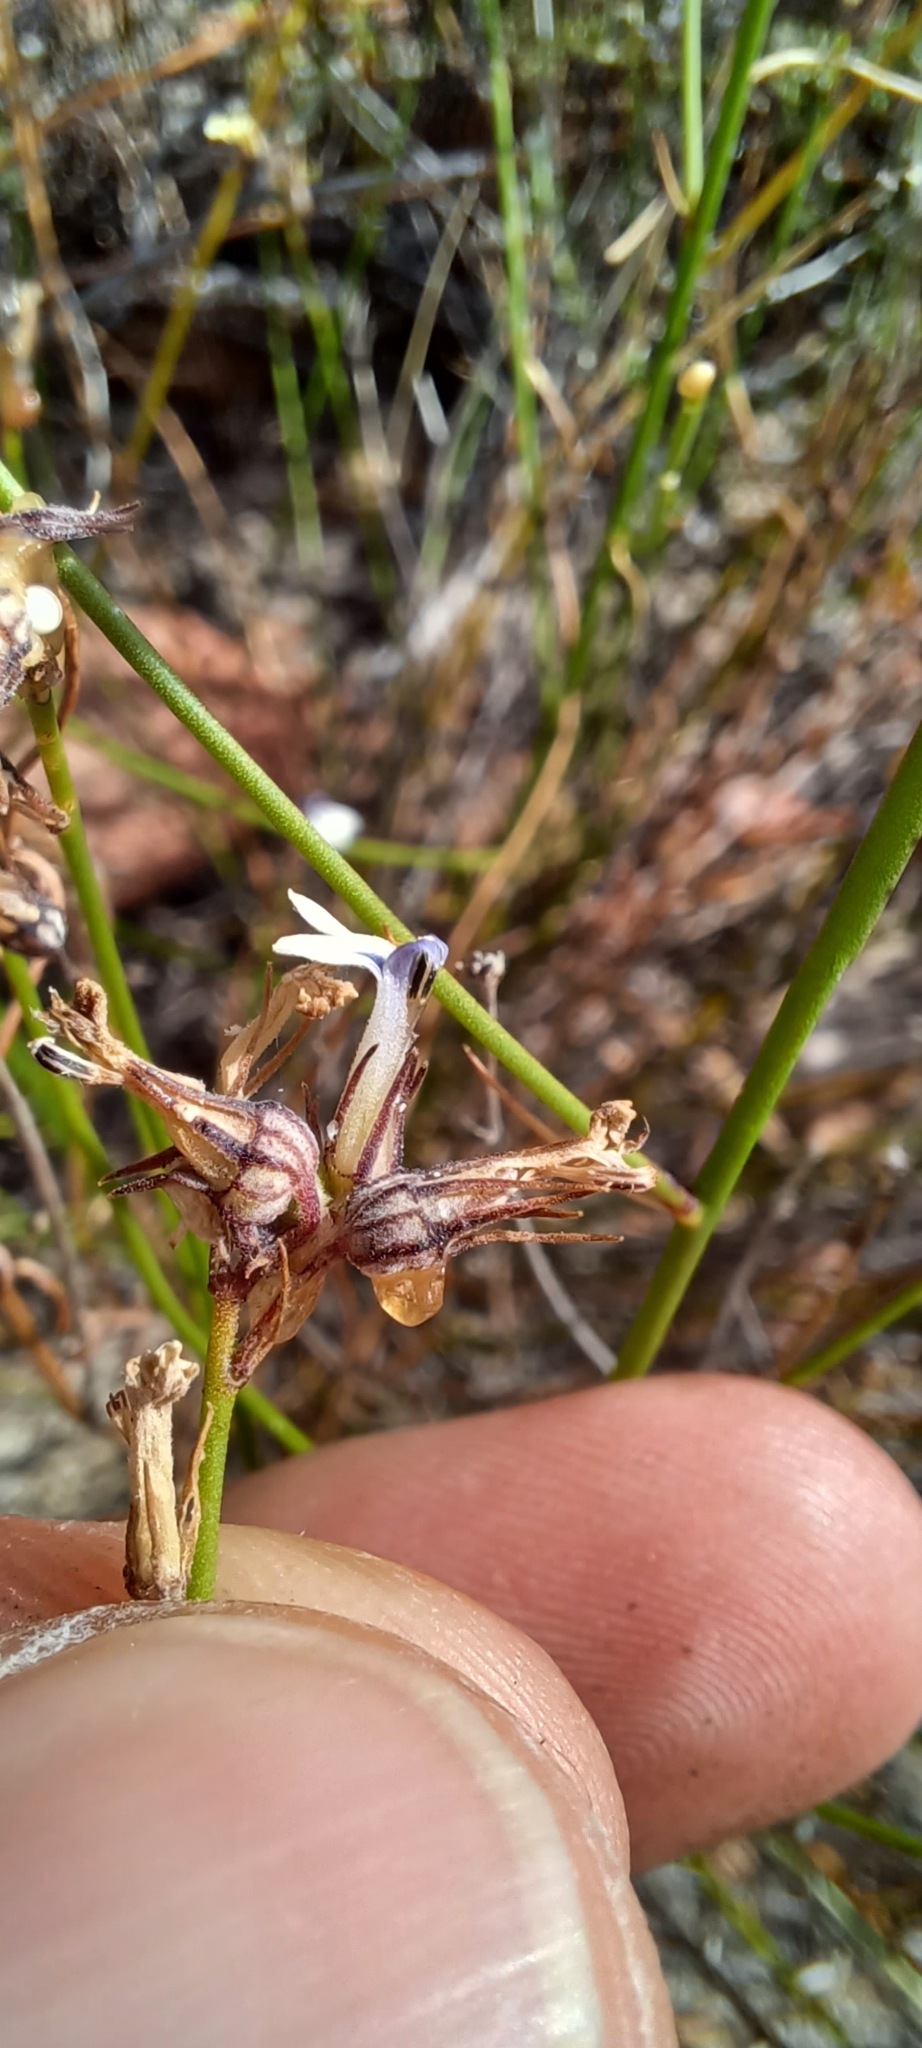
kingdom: Plantae
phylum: Tracheophyta
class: Magnoliopsida
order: Asterales
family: Campanulaceae
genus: Lobelia
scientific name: Lobelia linearis
